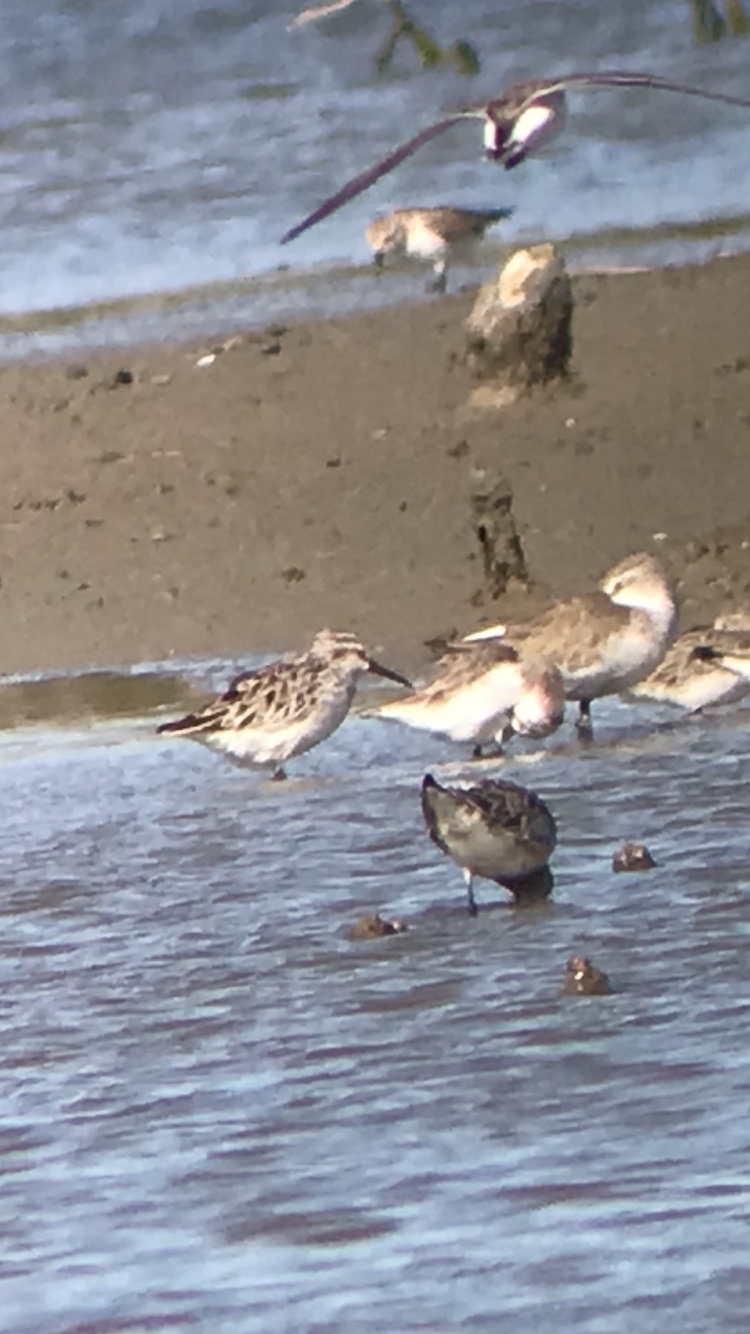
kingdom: Animalia
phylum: Chordata
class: Aves
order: Charadriiformes
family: Scolopacidae
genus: Calidris
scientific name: Calidris falcinellus
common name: Broad-billed sandpiper
